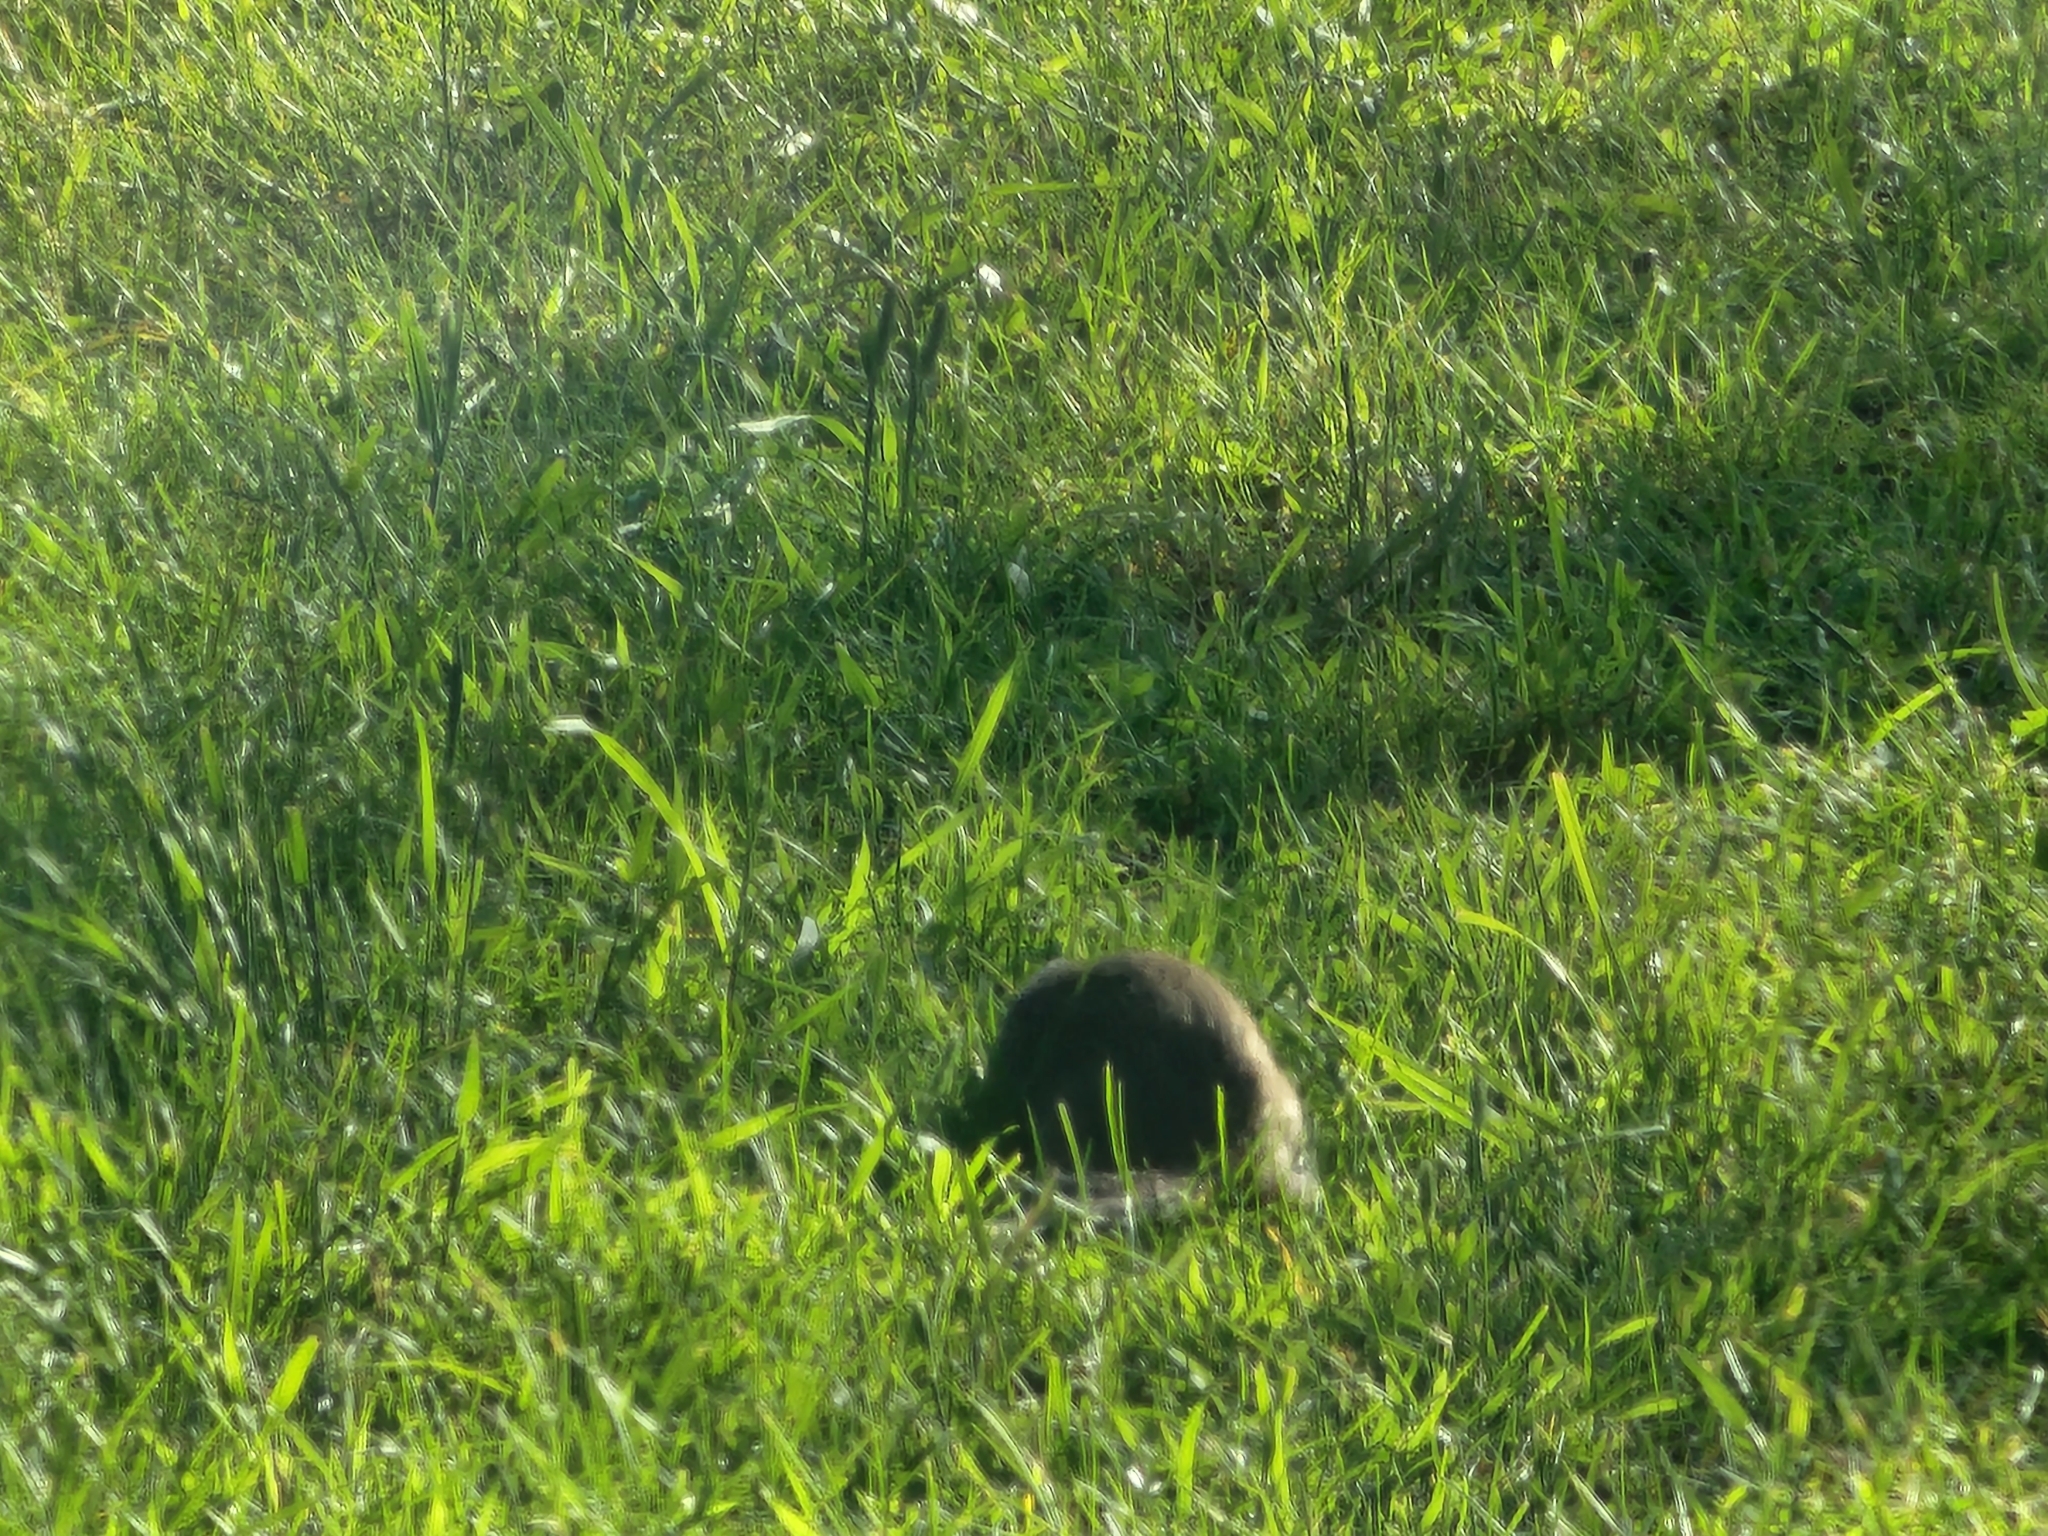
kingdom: Animalia
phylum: Chordata
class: Mammalia
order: Rodentia
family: Sciuridae
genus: Urocitellus
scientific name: Urocitellus columbianus
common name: Columbian ground squirrel
